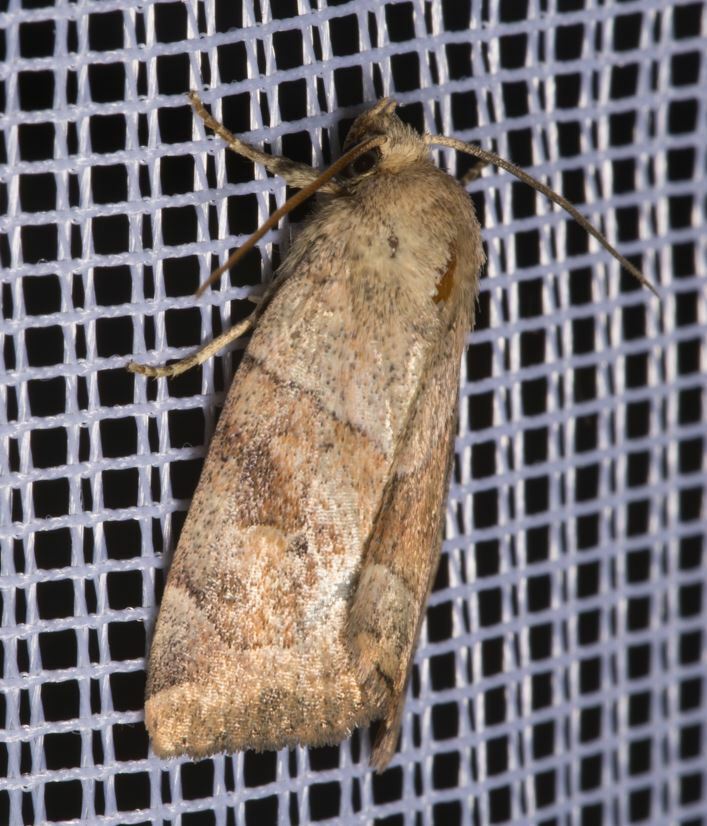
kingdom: Animalia
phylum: Arthropoda
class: Insecta
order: Lepidoptera
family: Noctuidae
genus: Cosmia
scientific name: Cosmia trapezina
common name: Dun-bar
